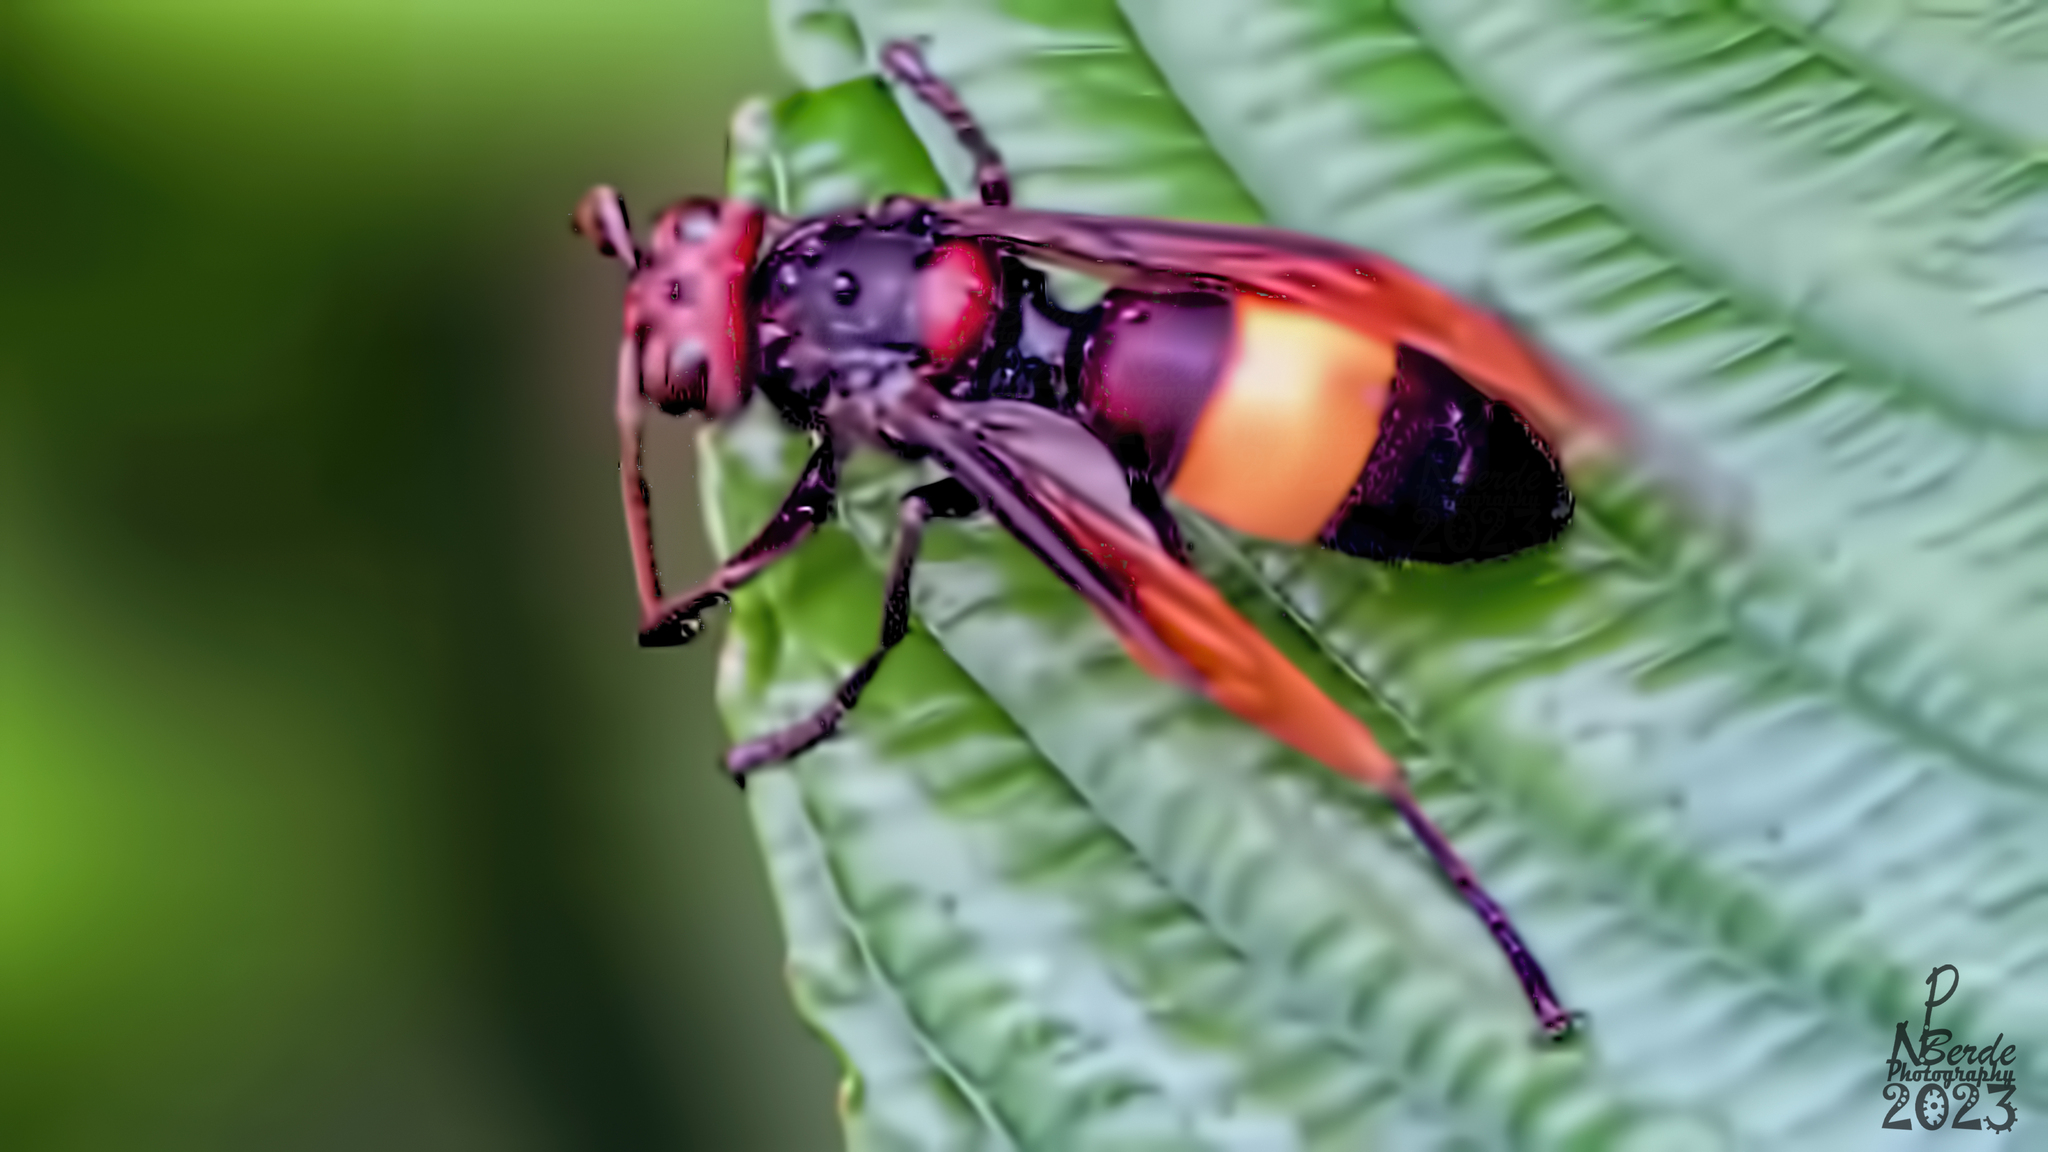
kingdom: Animalia
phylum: Arthropoda
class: Insecta
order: Hymenoptera
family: Vespidae
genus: Vespa
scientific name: Vespa tropica
